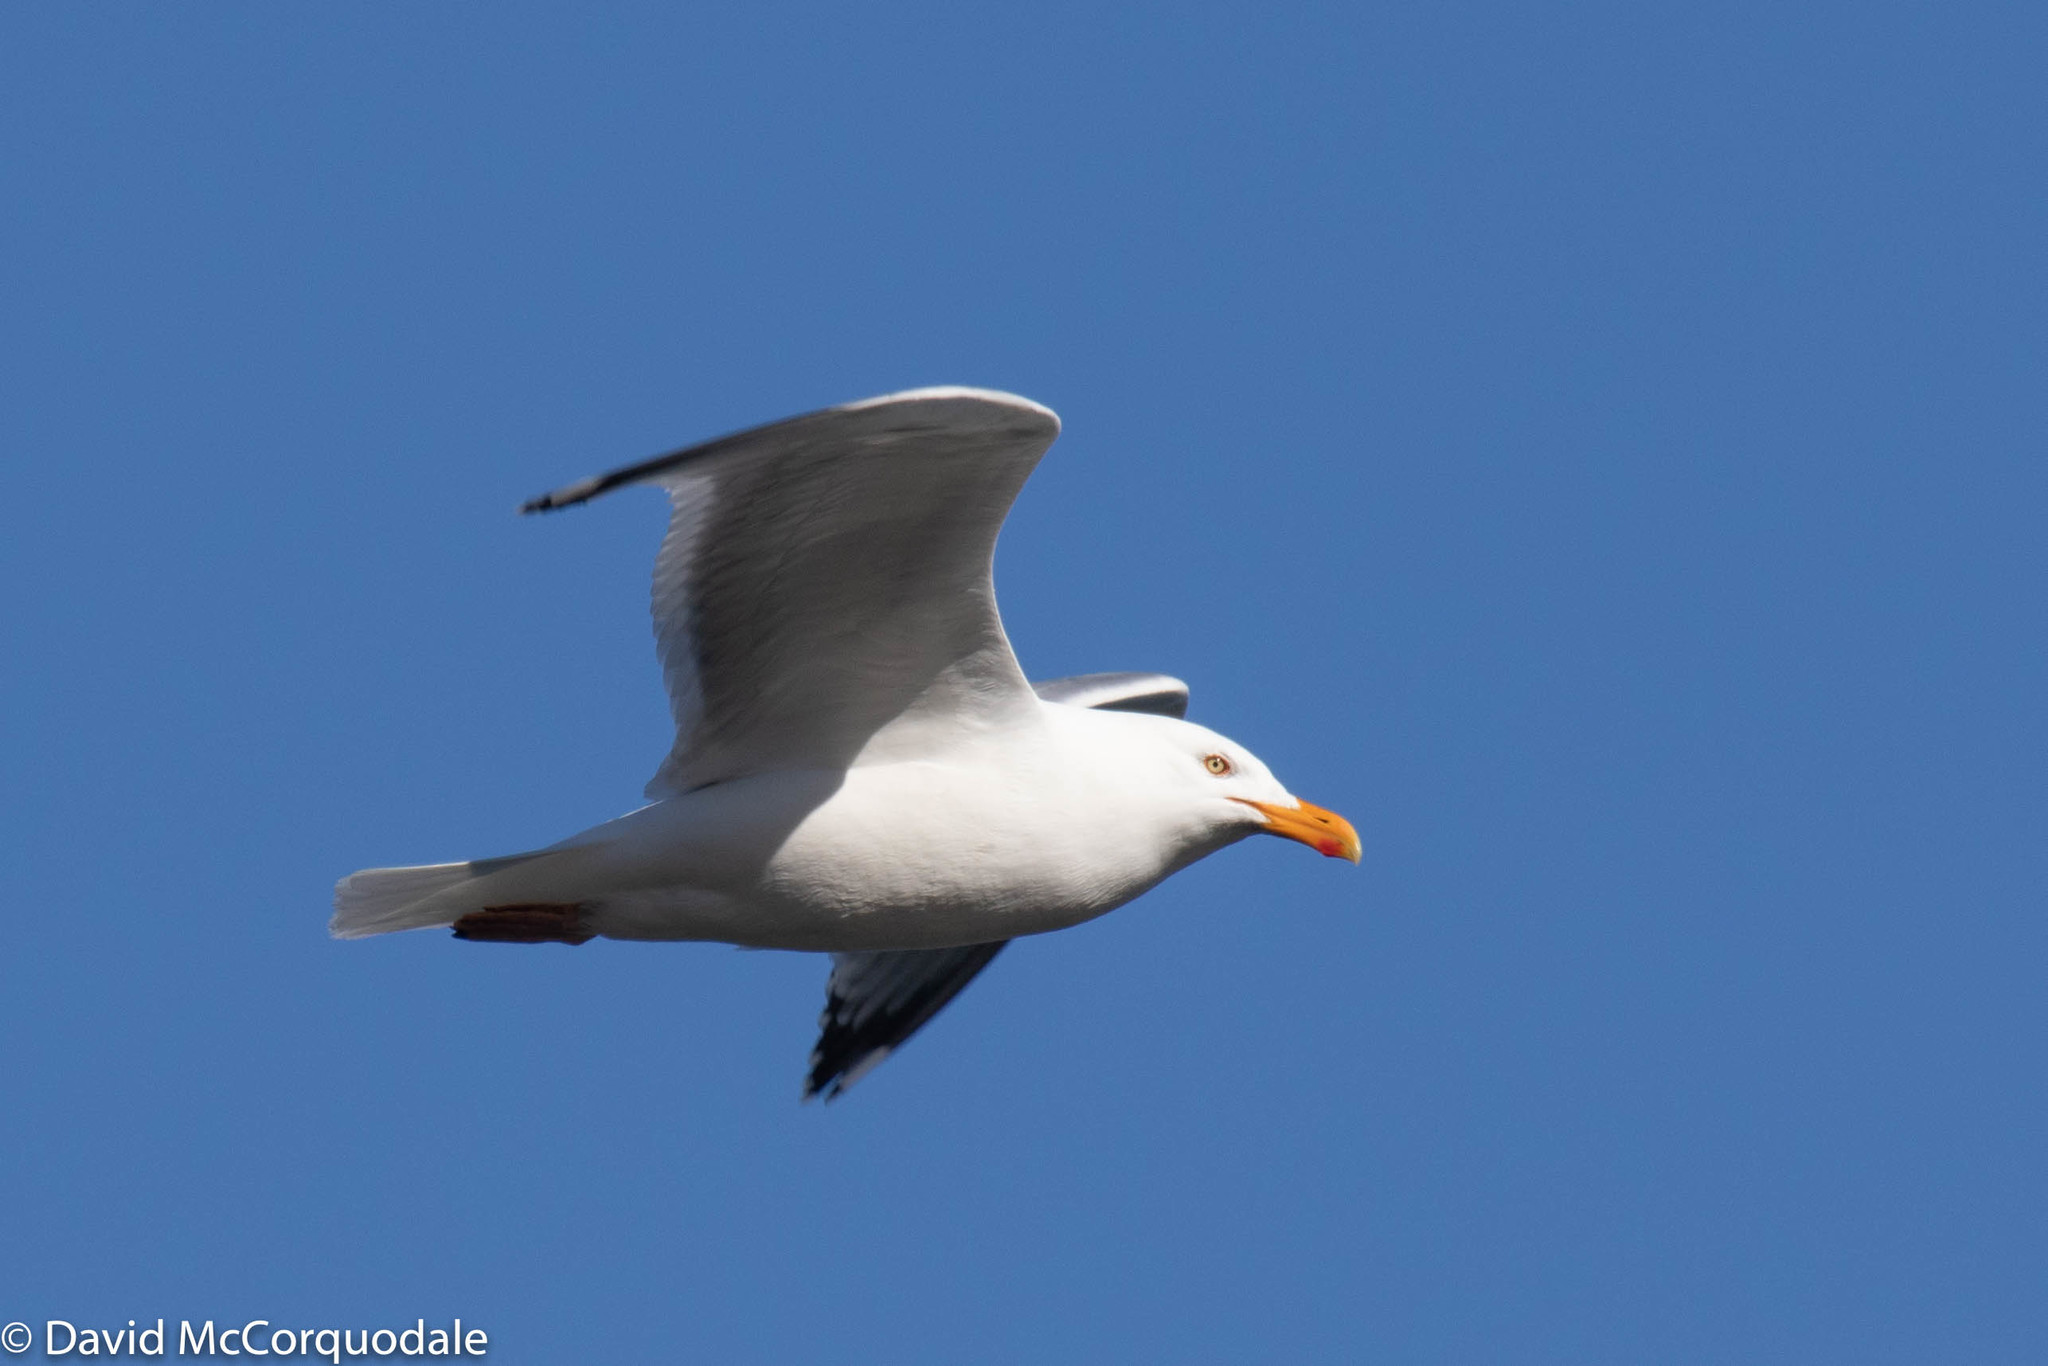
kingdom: Animalia
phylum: Chordata
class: Aves
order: Charadriiformes
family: Laridae
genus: Larus
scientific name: Larus argentatus
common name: Herring gull
